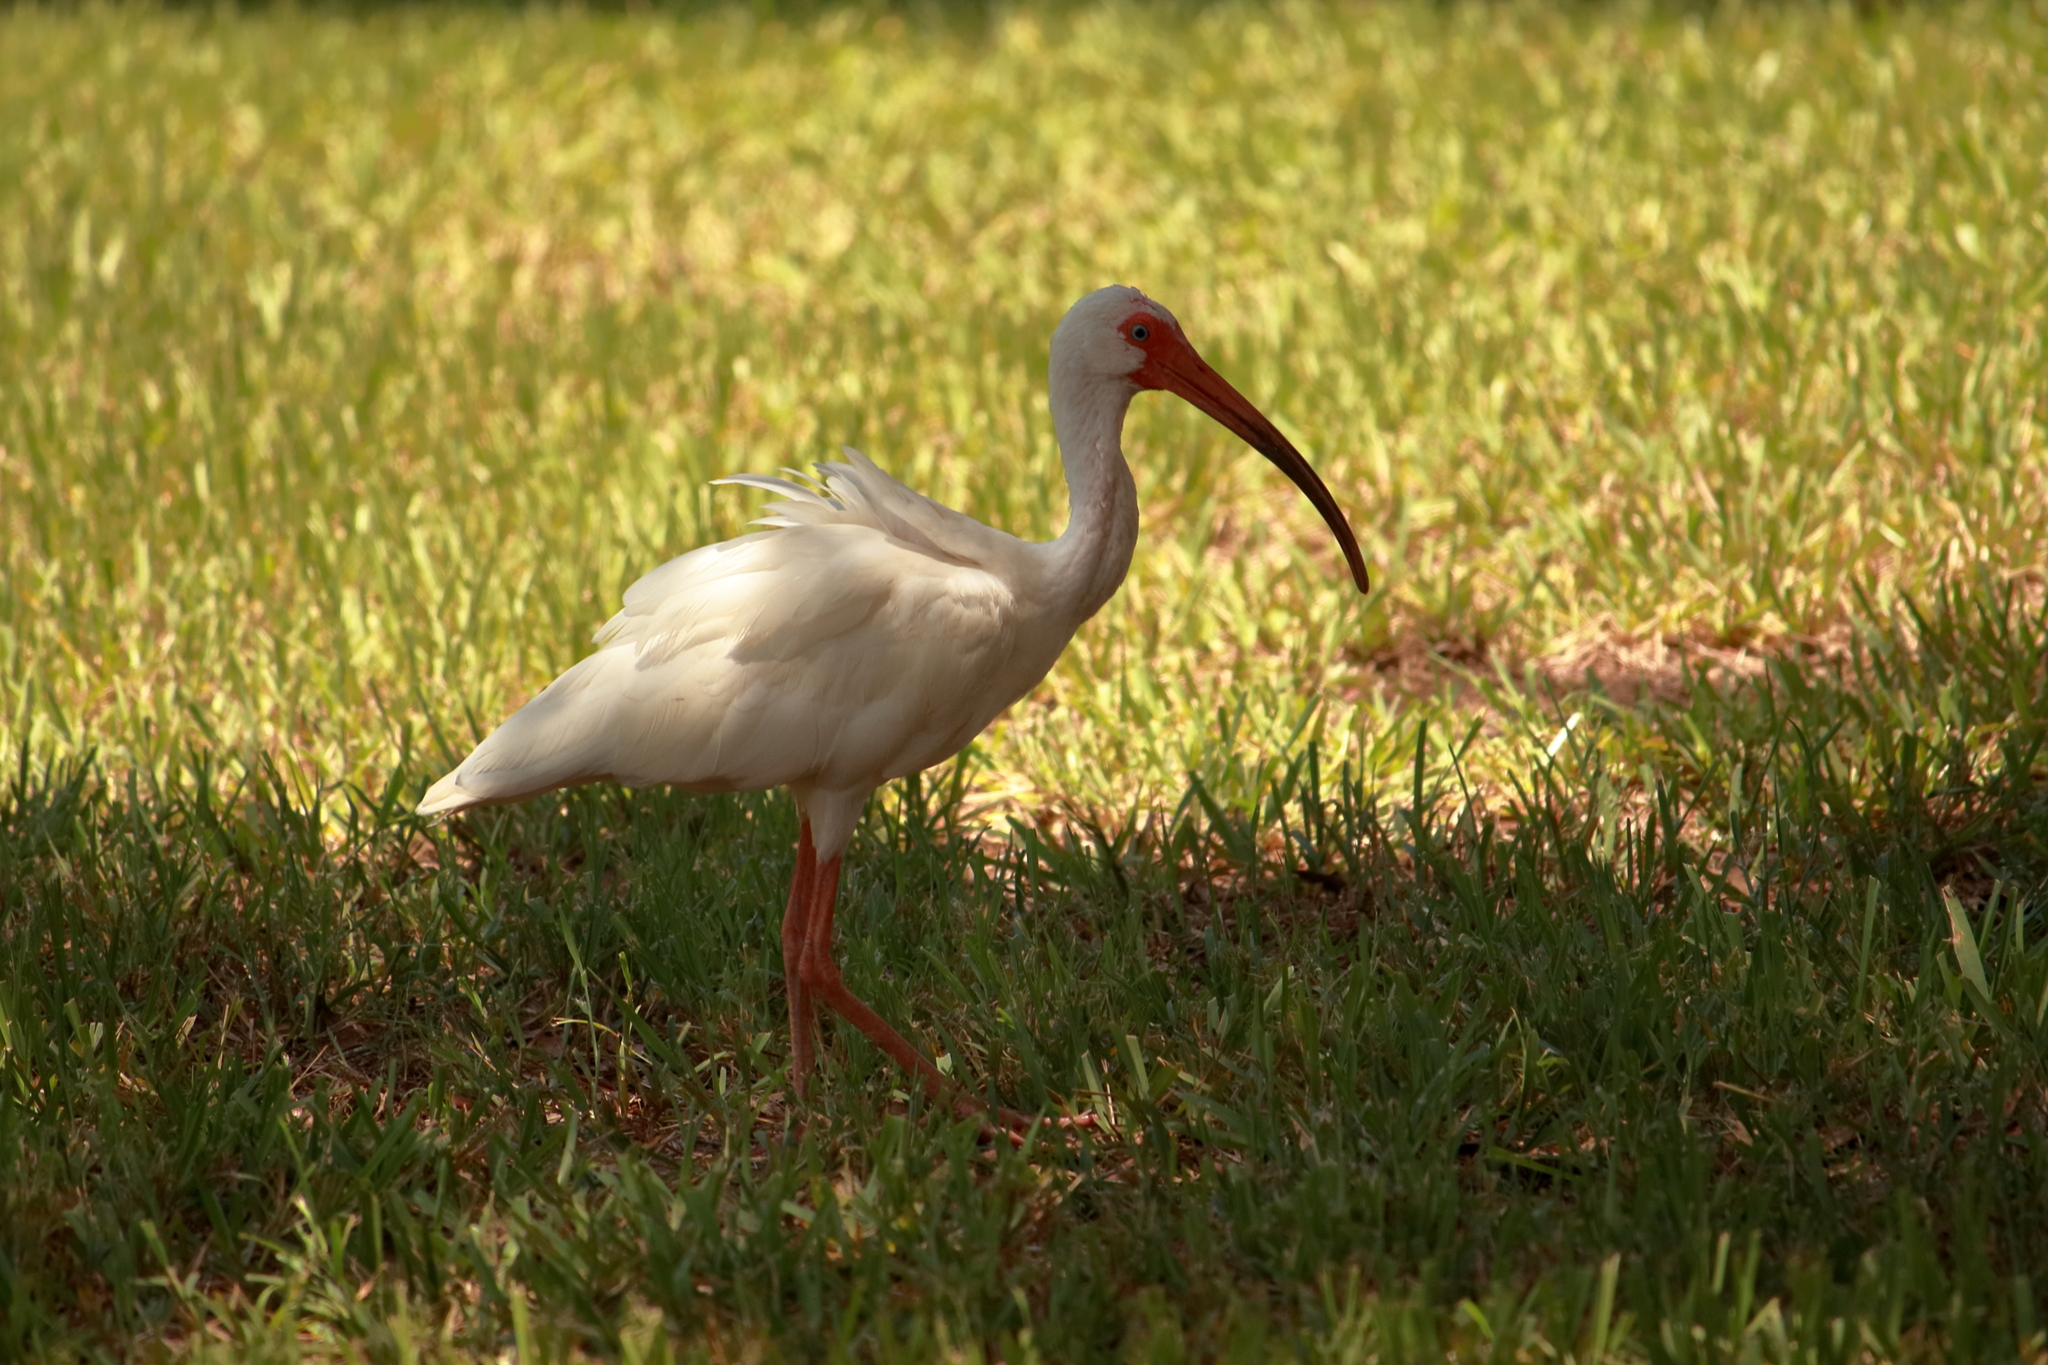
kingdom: Animalia
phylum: Chordata
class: Aves
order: Pelecaniformes
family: Threskiornithidae
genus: Eudocimus
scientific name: Eudocimus albus
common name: White ibis
